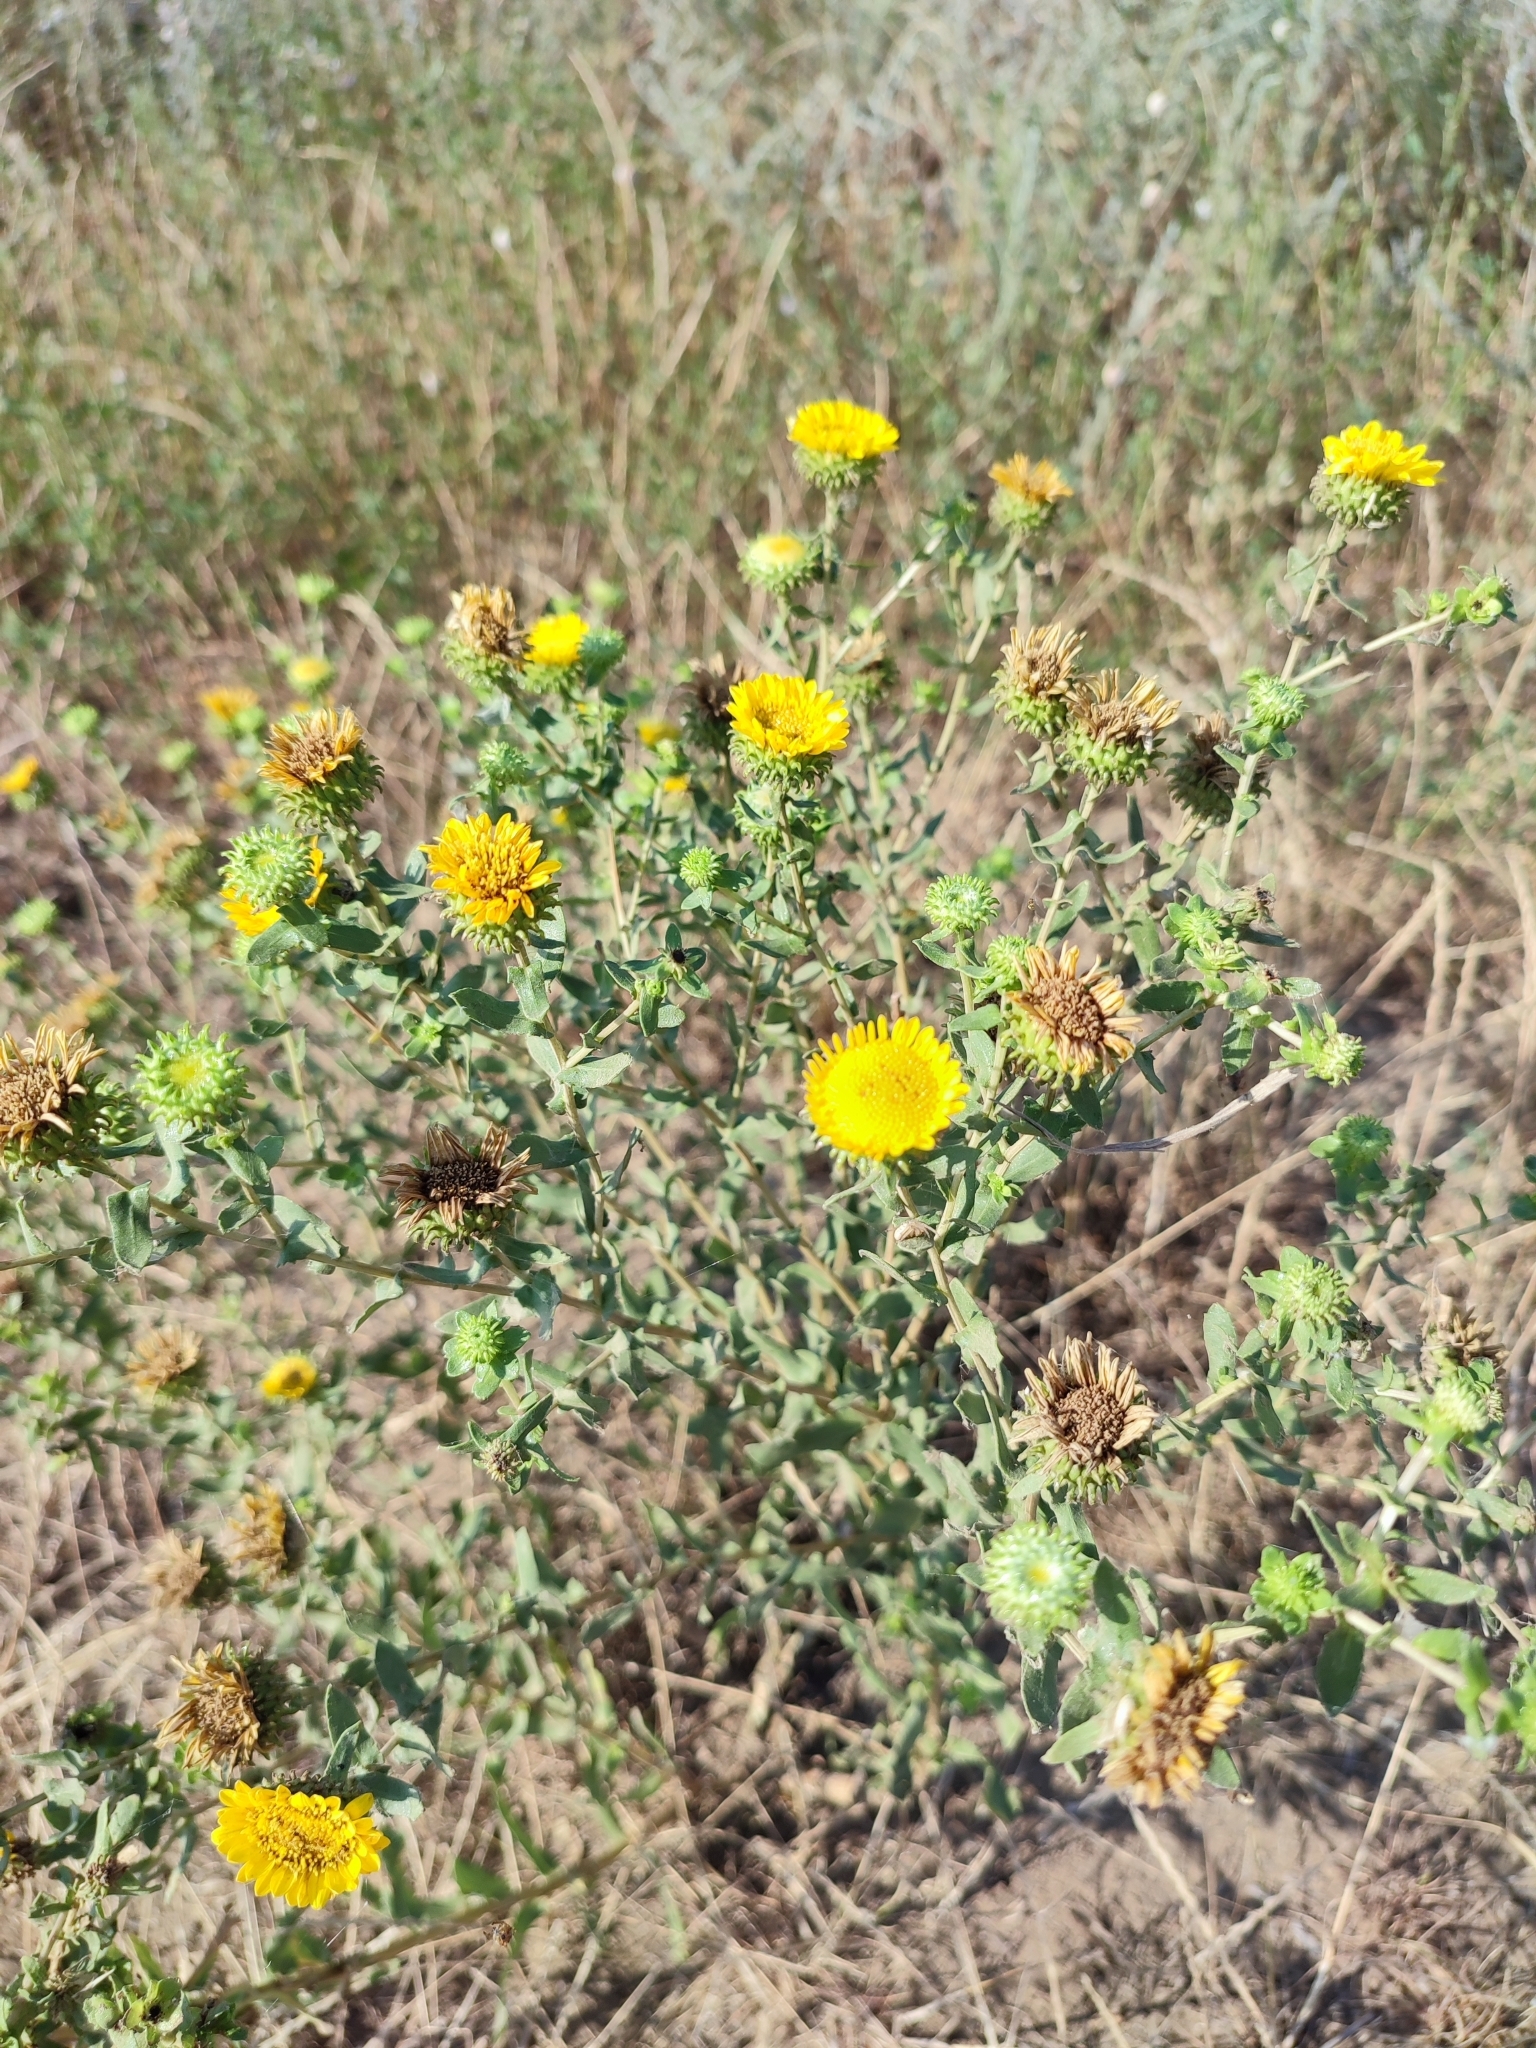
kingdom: Plantae
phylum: Tracheophyta
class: Magnoliopsida
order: Asterales
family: Asteraceae
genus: Grindelia
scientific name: Grindelia squarrosa
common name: Curly-cup gumweed
